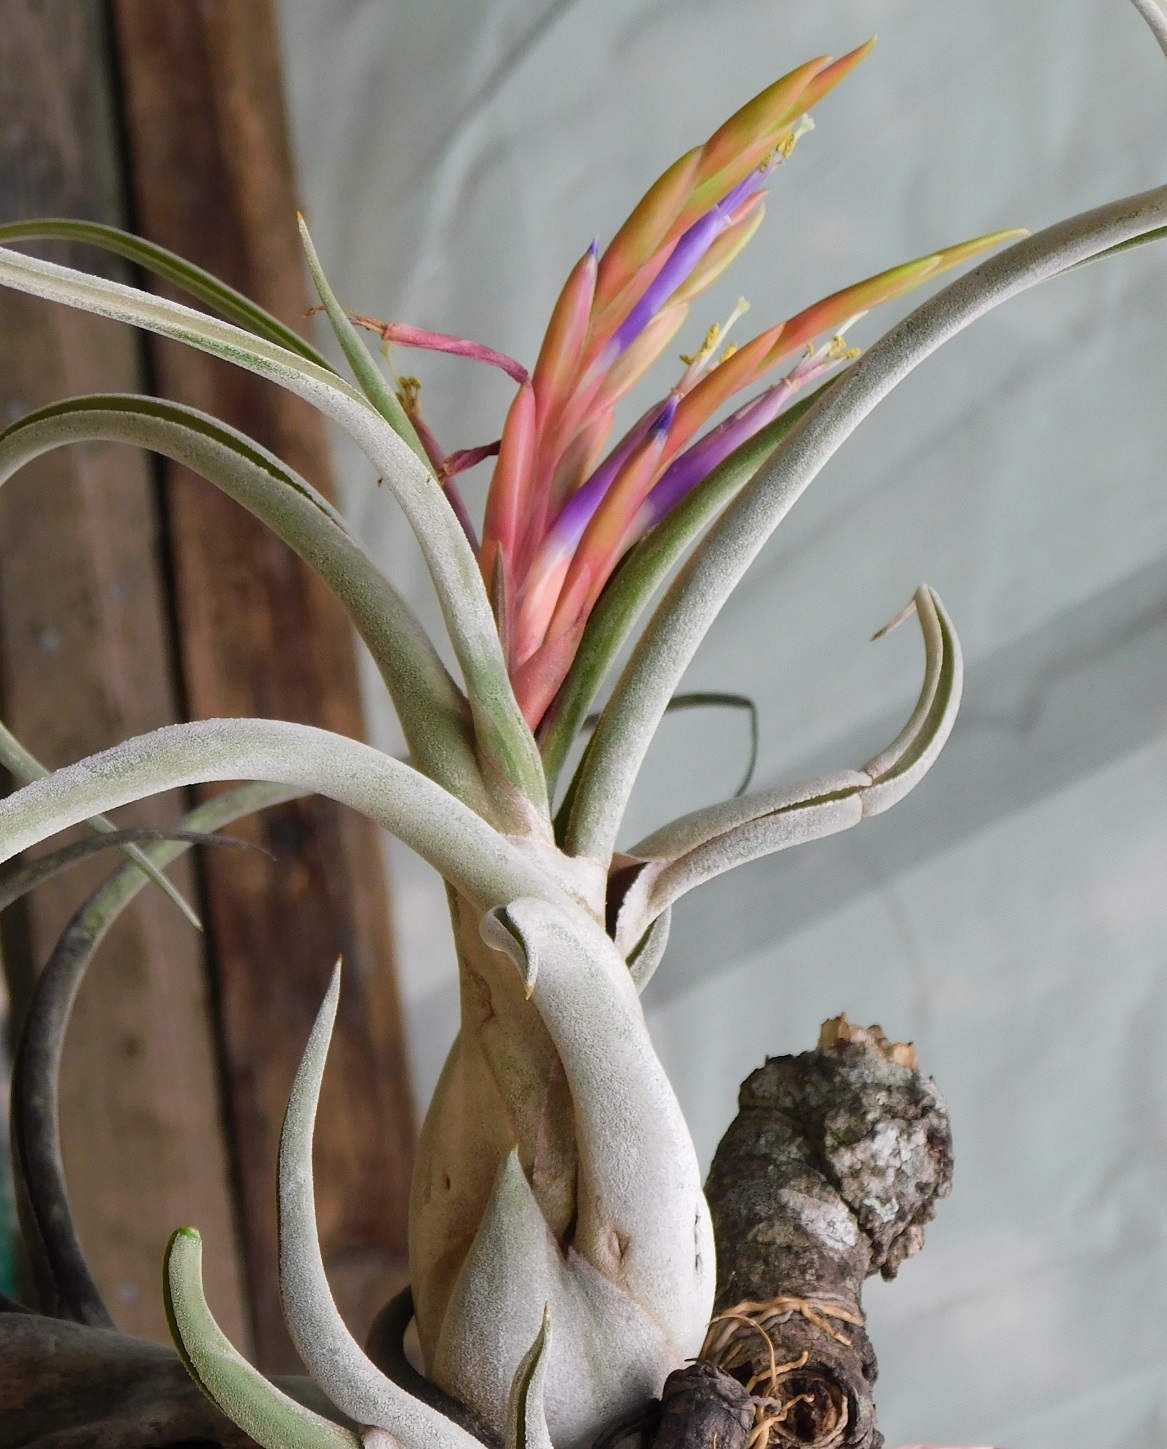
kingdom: Plantae
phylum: Tracheophyta
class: Liliopsida
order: Poales
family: Bromeliaceae
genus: Tillandsia
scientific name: Tillandsia caput-medusae
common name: Octopus plant
